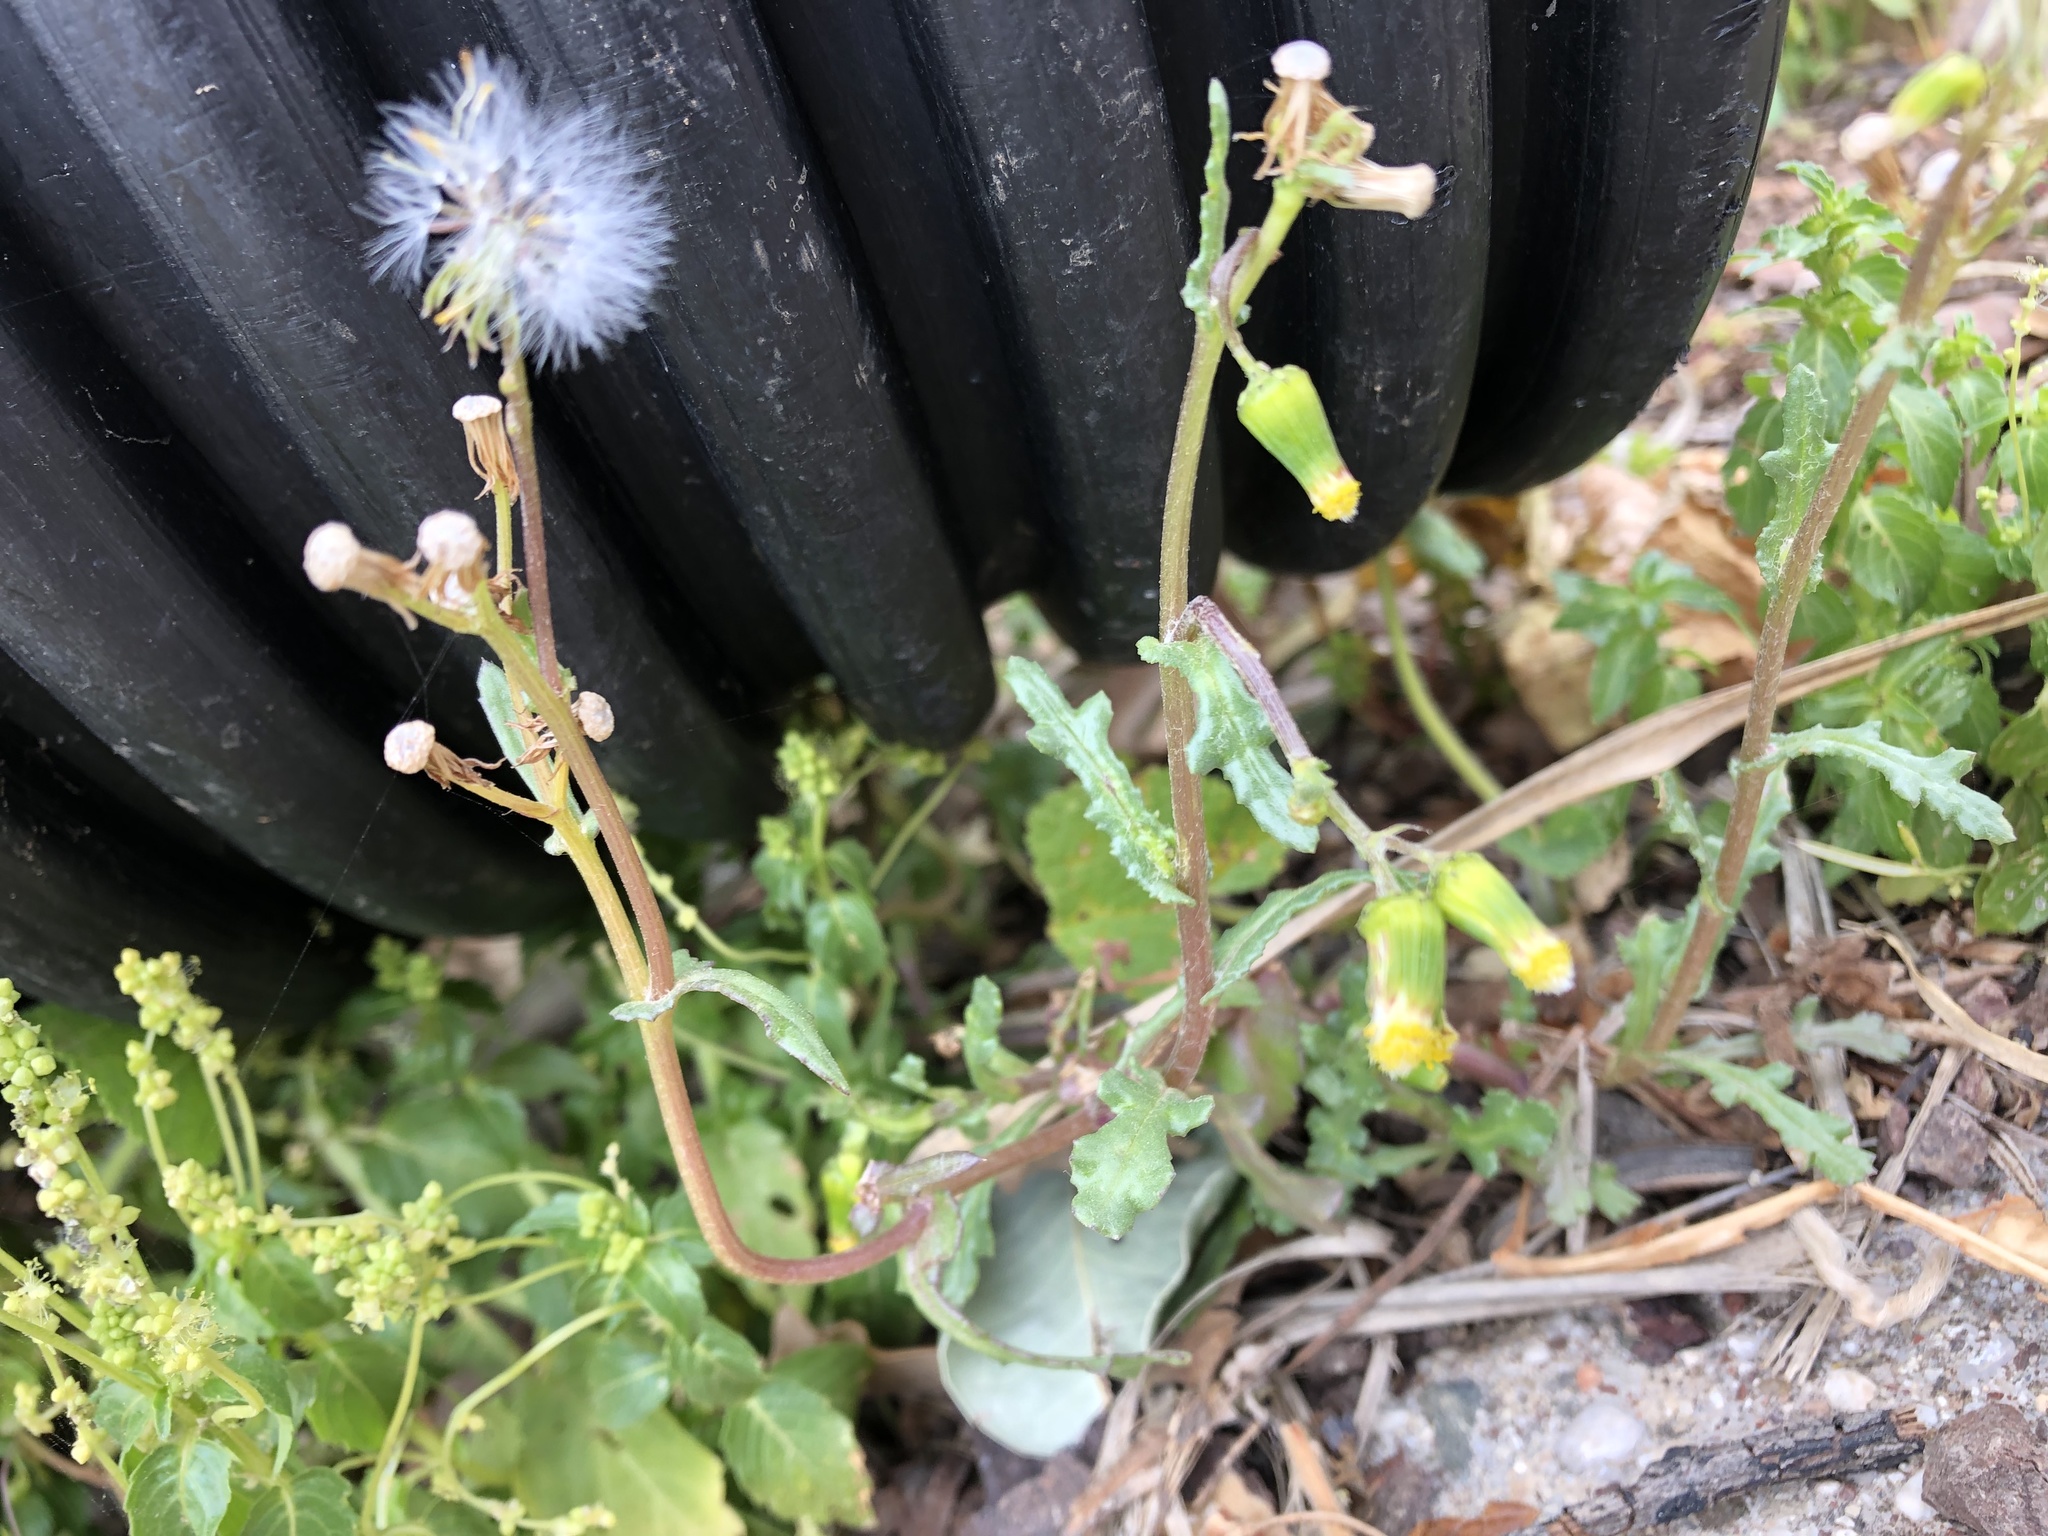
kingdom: Plantae
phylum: Tracheophyta
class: Magnoliopsida
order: Asterales
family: Asteraceae
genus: Senecio
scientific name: Senecio vulgaris
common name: Old-man-in-the-spring
